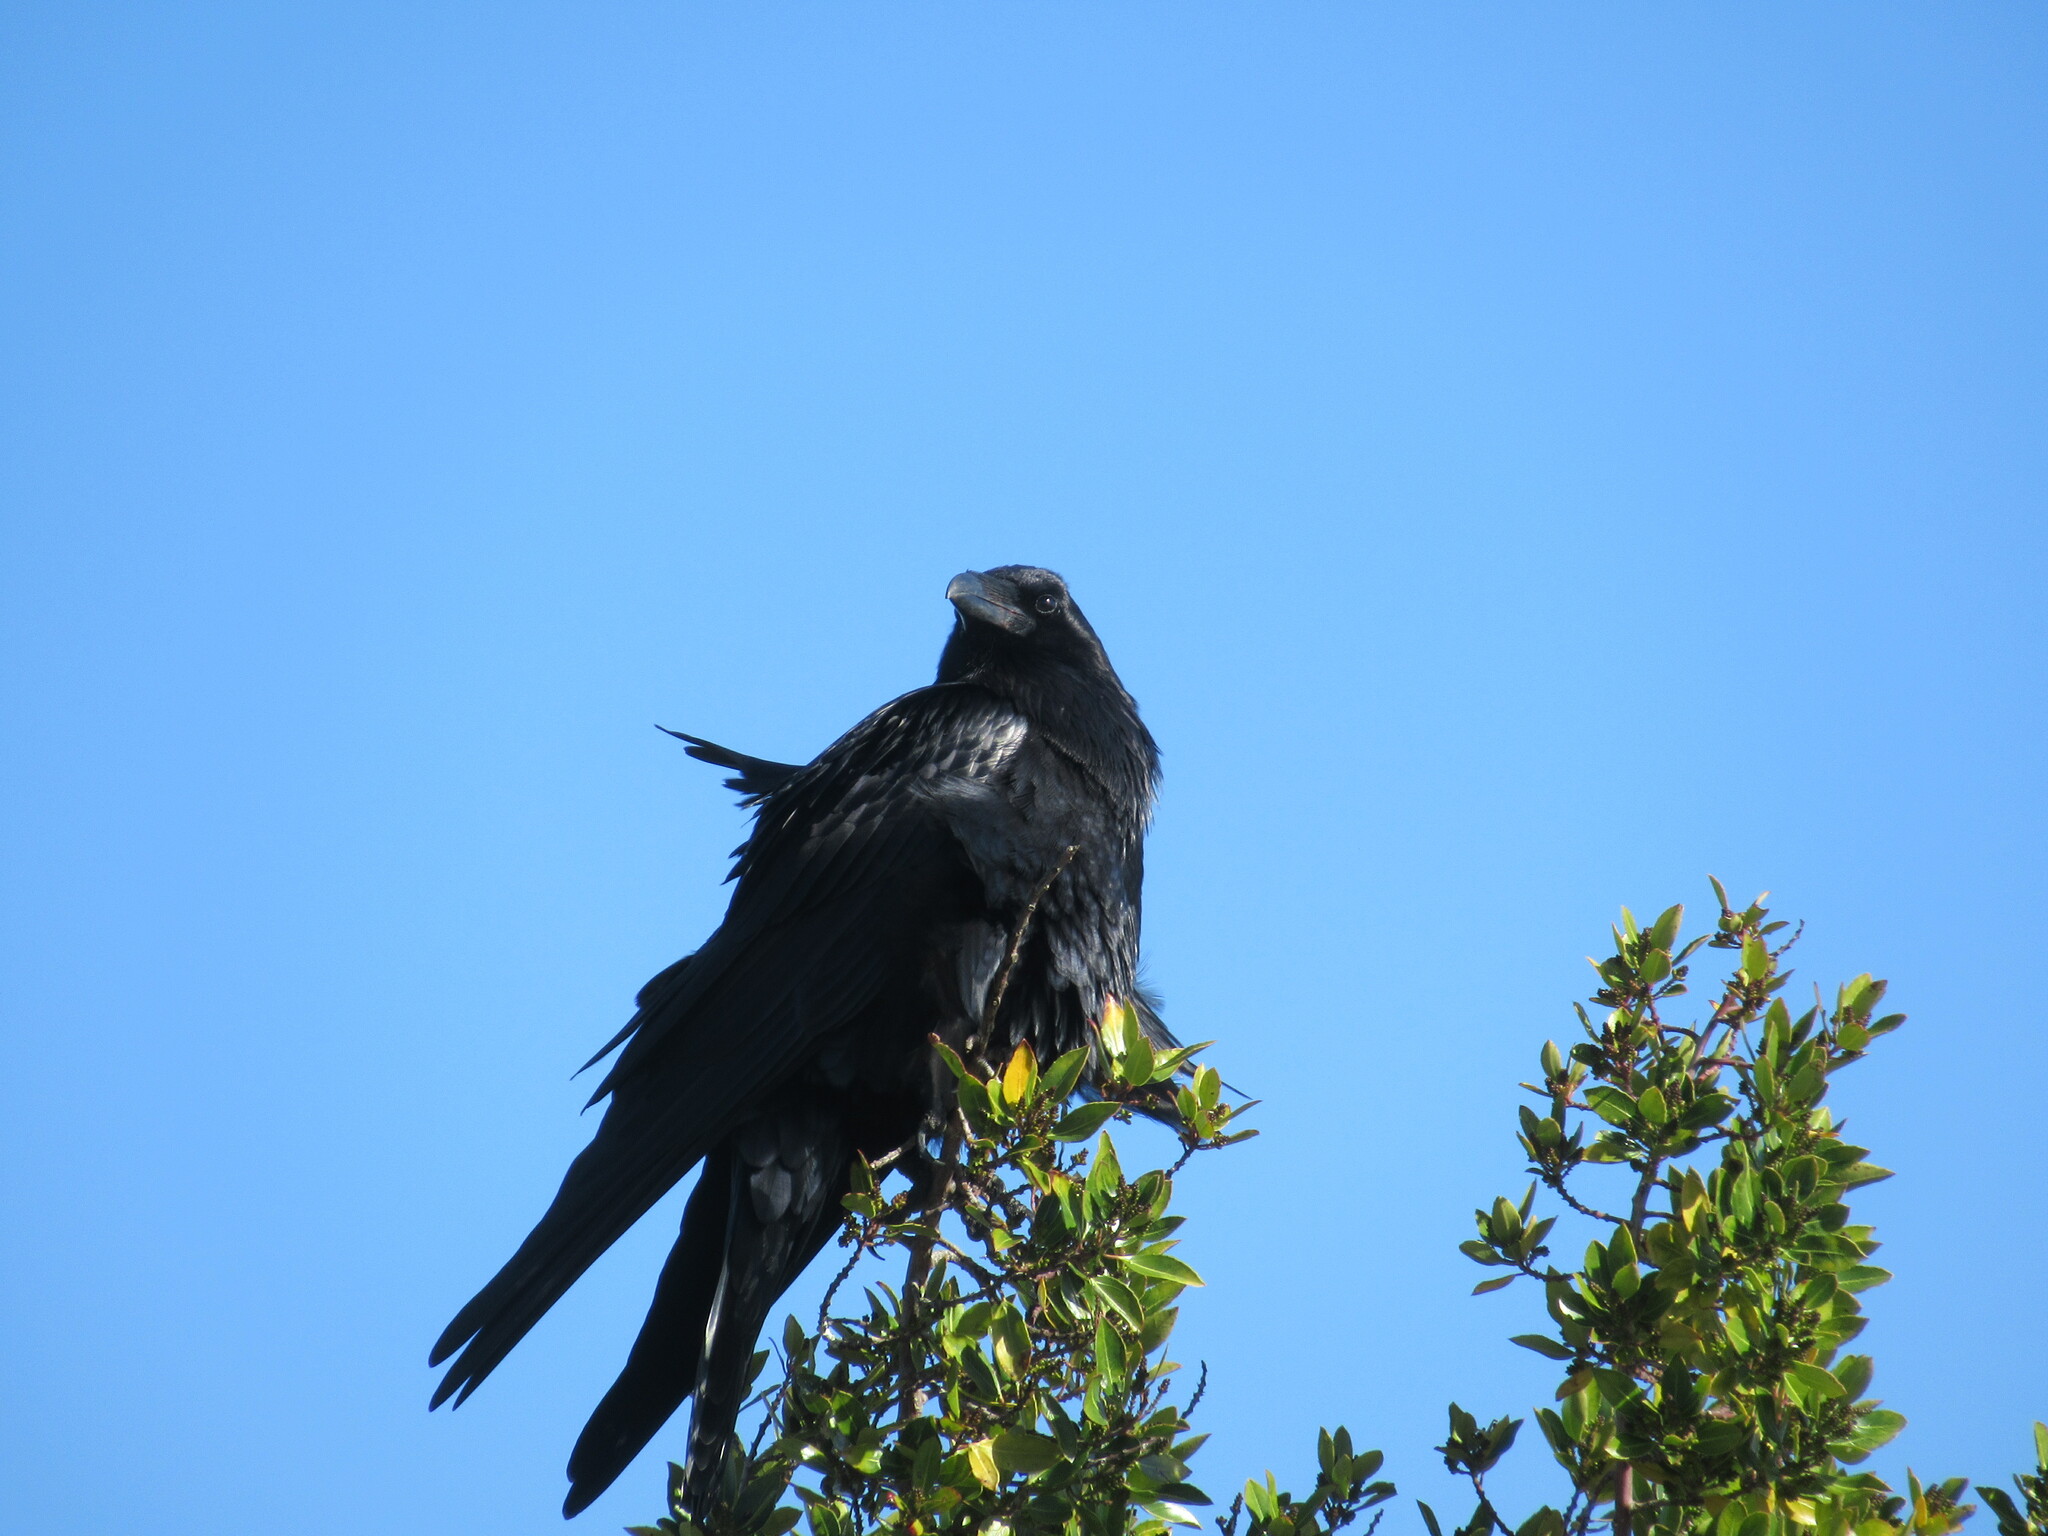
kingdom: Animalia
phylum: Chordata
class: Aves
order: Passeriformes
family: Corvidae
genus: Corvus
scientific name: Corvus corax
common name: Common raven
